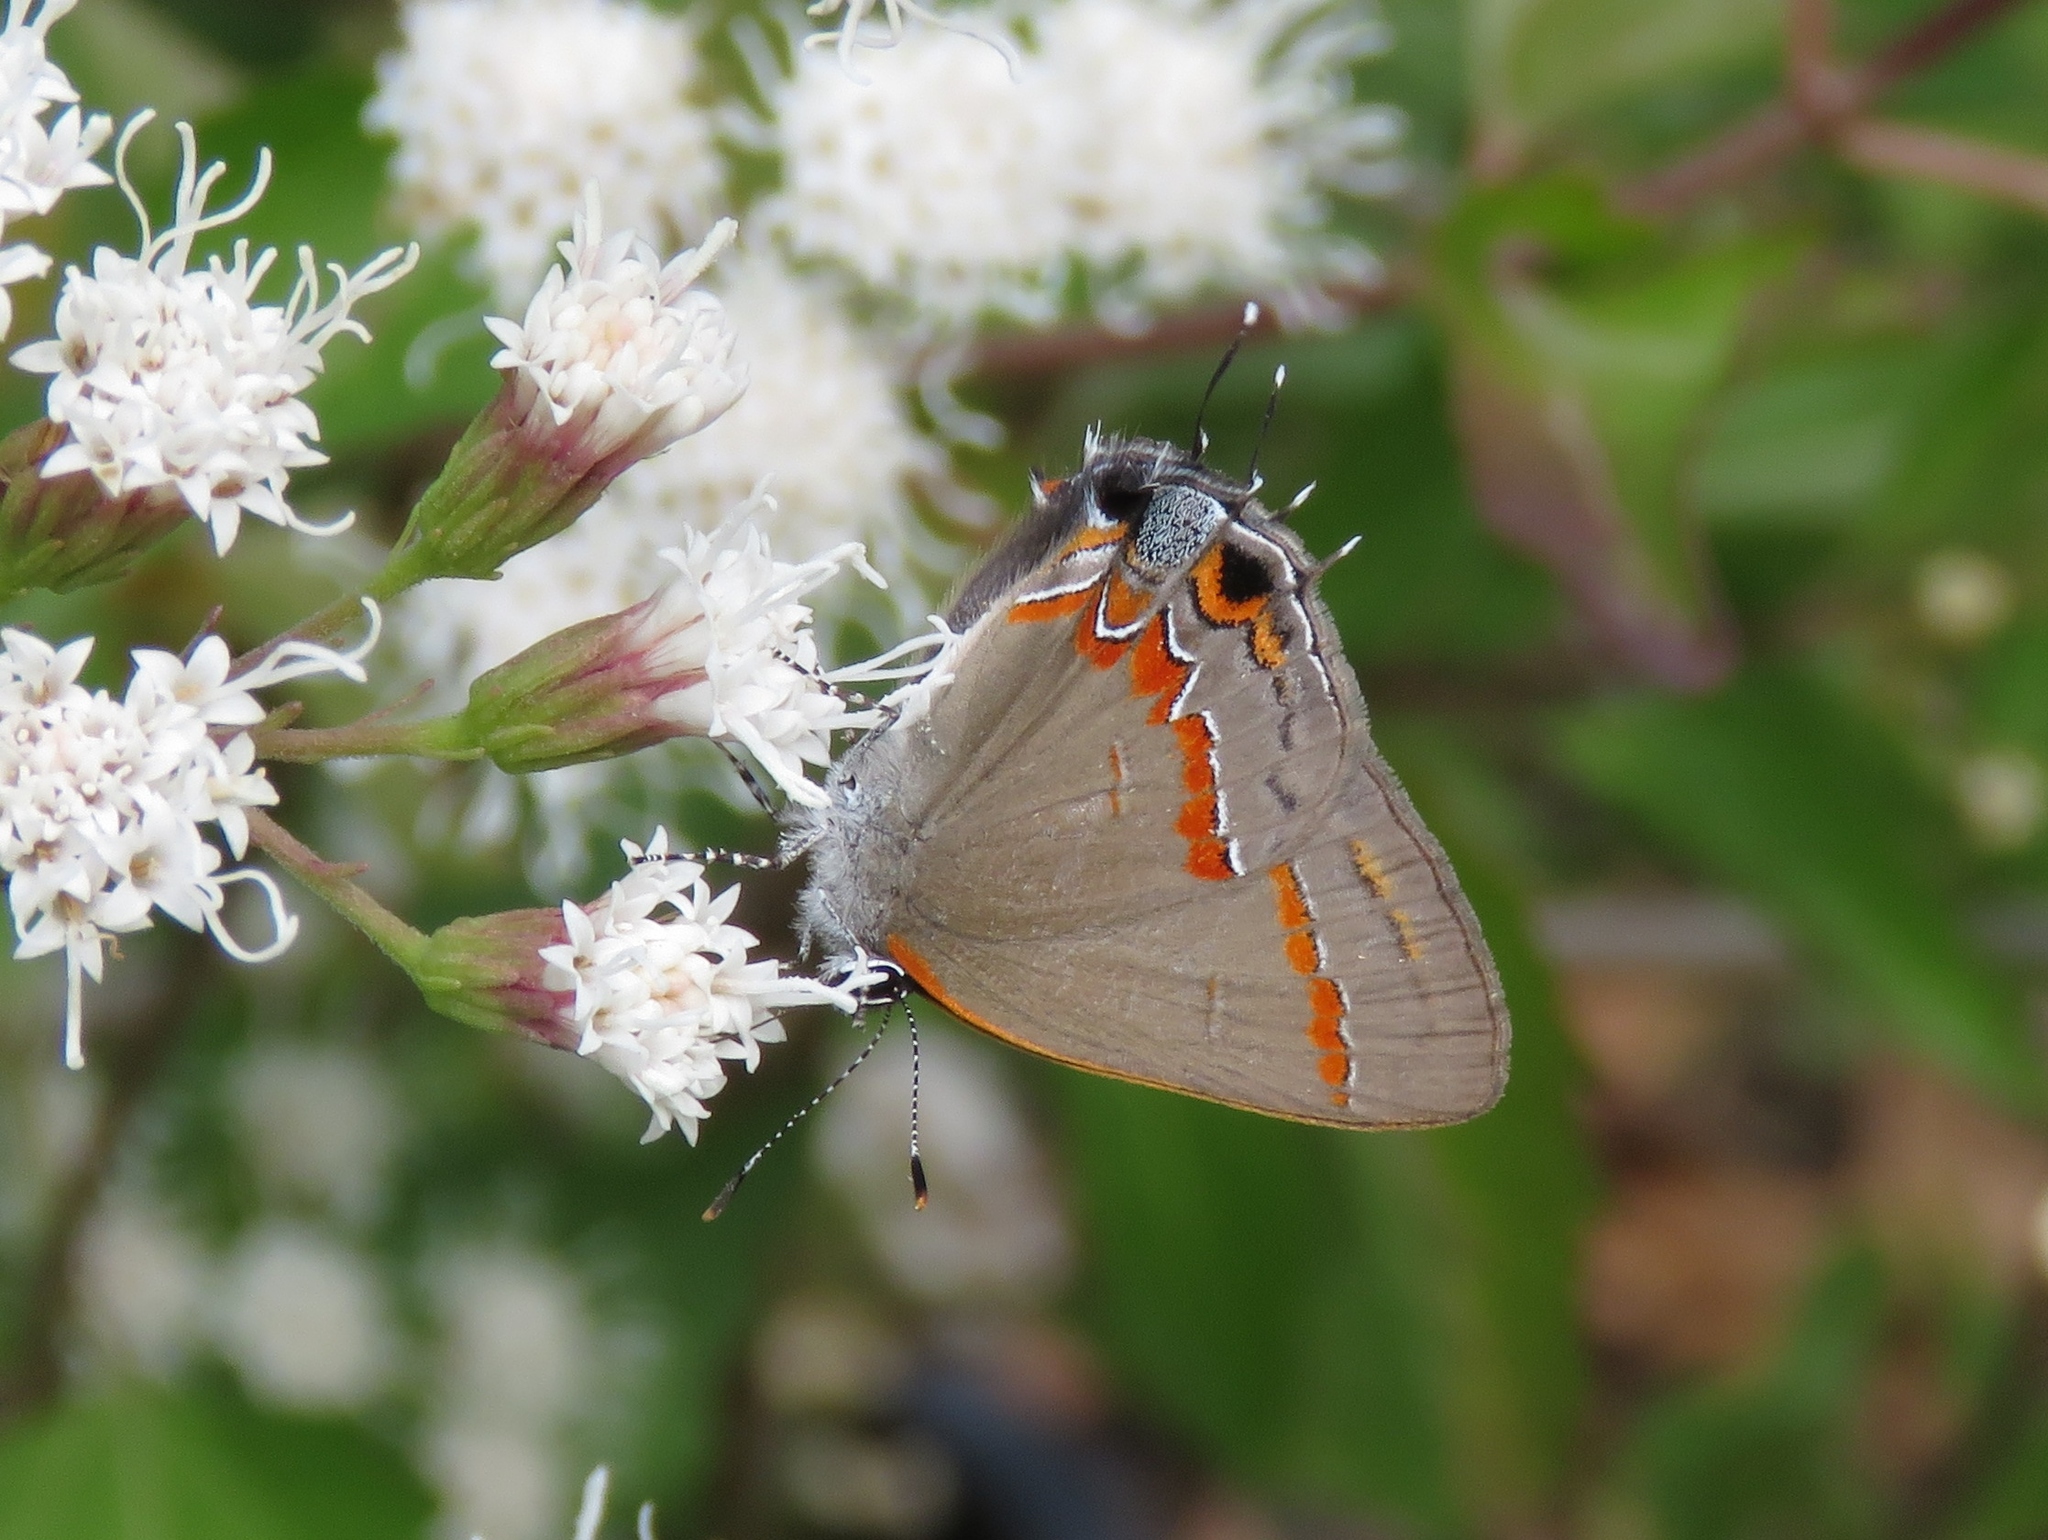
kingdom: Animalia
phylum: Arthropoda
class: Insecta
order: Lepidoptera
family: Lycaenidae
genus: Calycopis
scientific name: Calycopis cecrops
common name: Red-banded hairstreak
